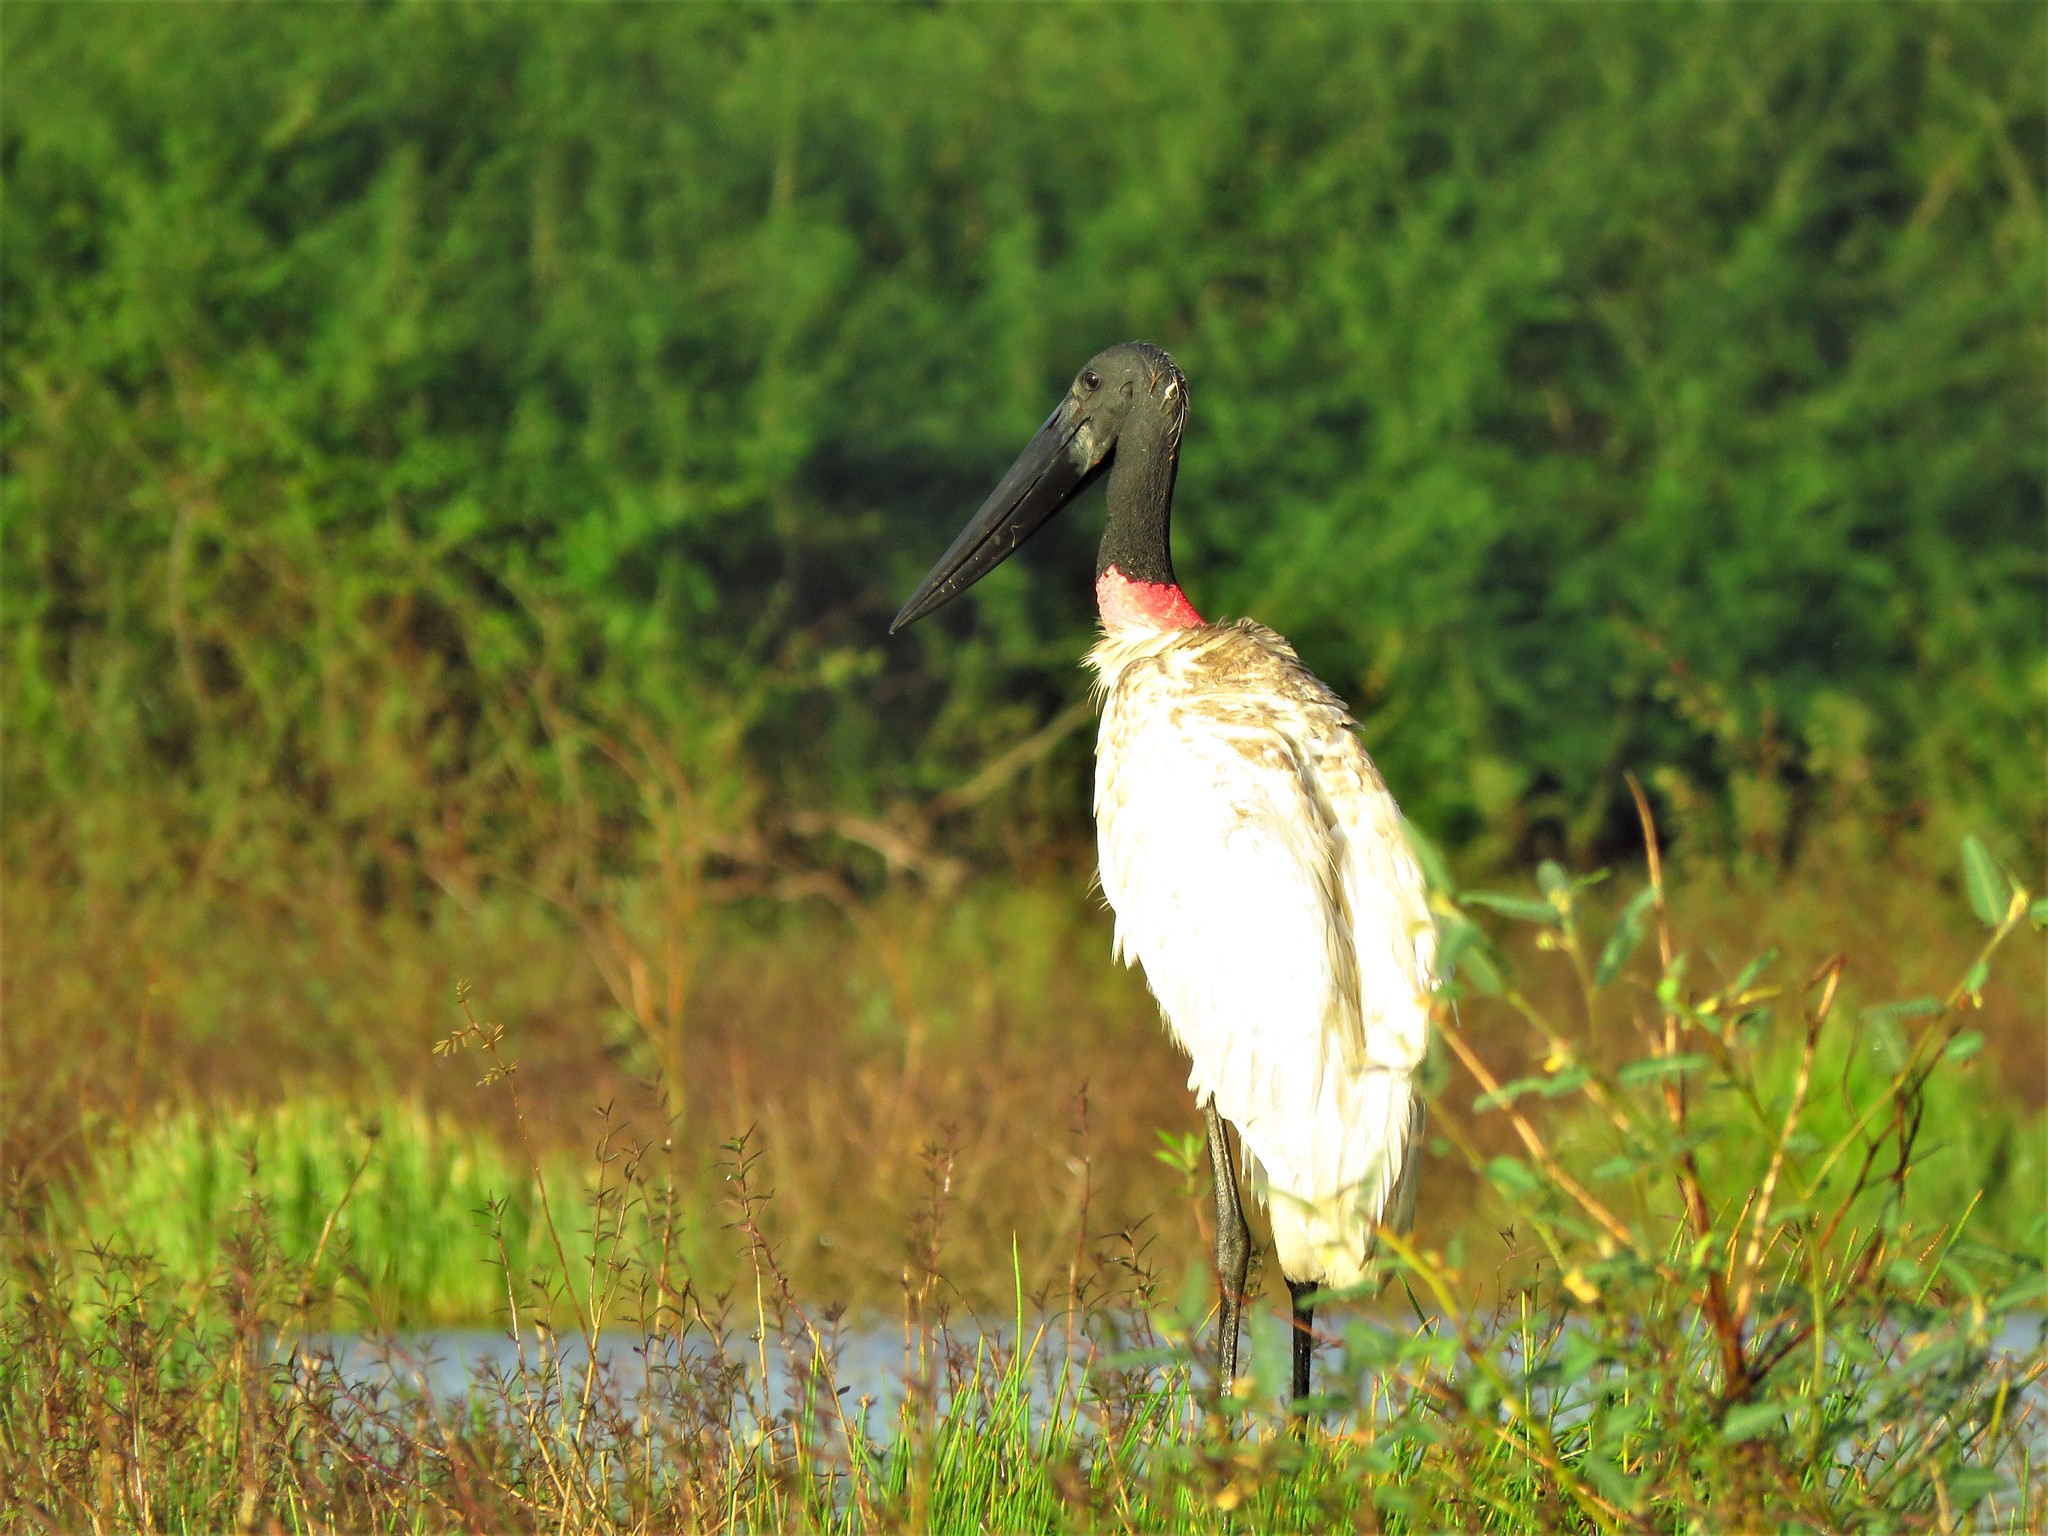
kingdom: Animalia
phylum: Chordata
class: Aves
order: Ciconiiformes
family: Ciconiidae
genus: Jabiru
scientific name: Jabiru mycteria
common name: Jabiru
